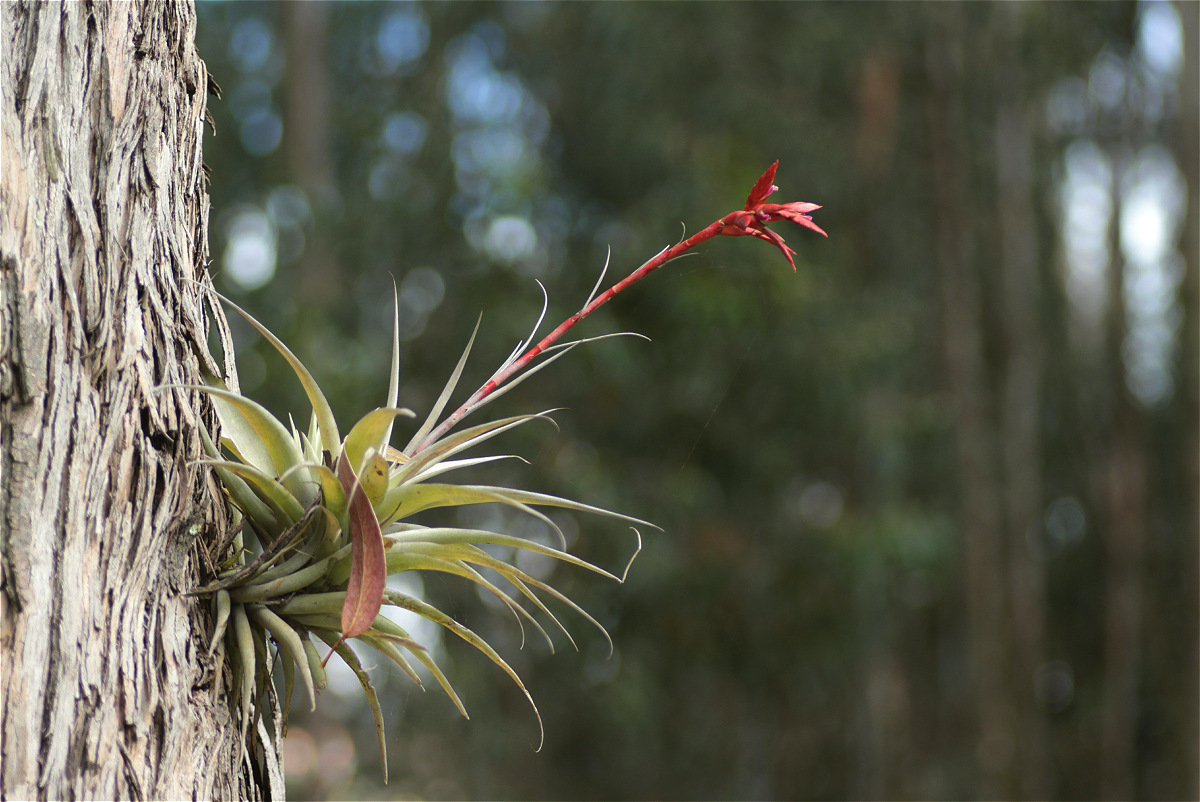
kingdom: Plantae
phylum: Tracheophyta
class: Liliopsida
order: Poales
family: Bromeliaceae
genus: Tillandsia
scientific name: Tillandsia latifolia
